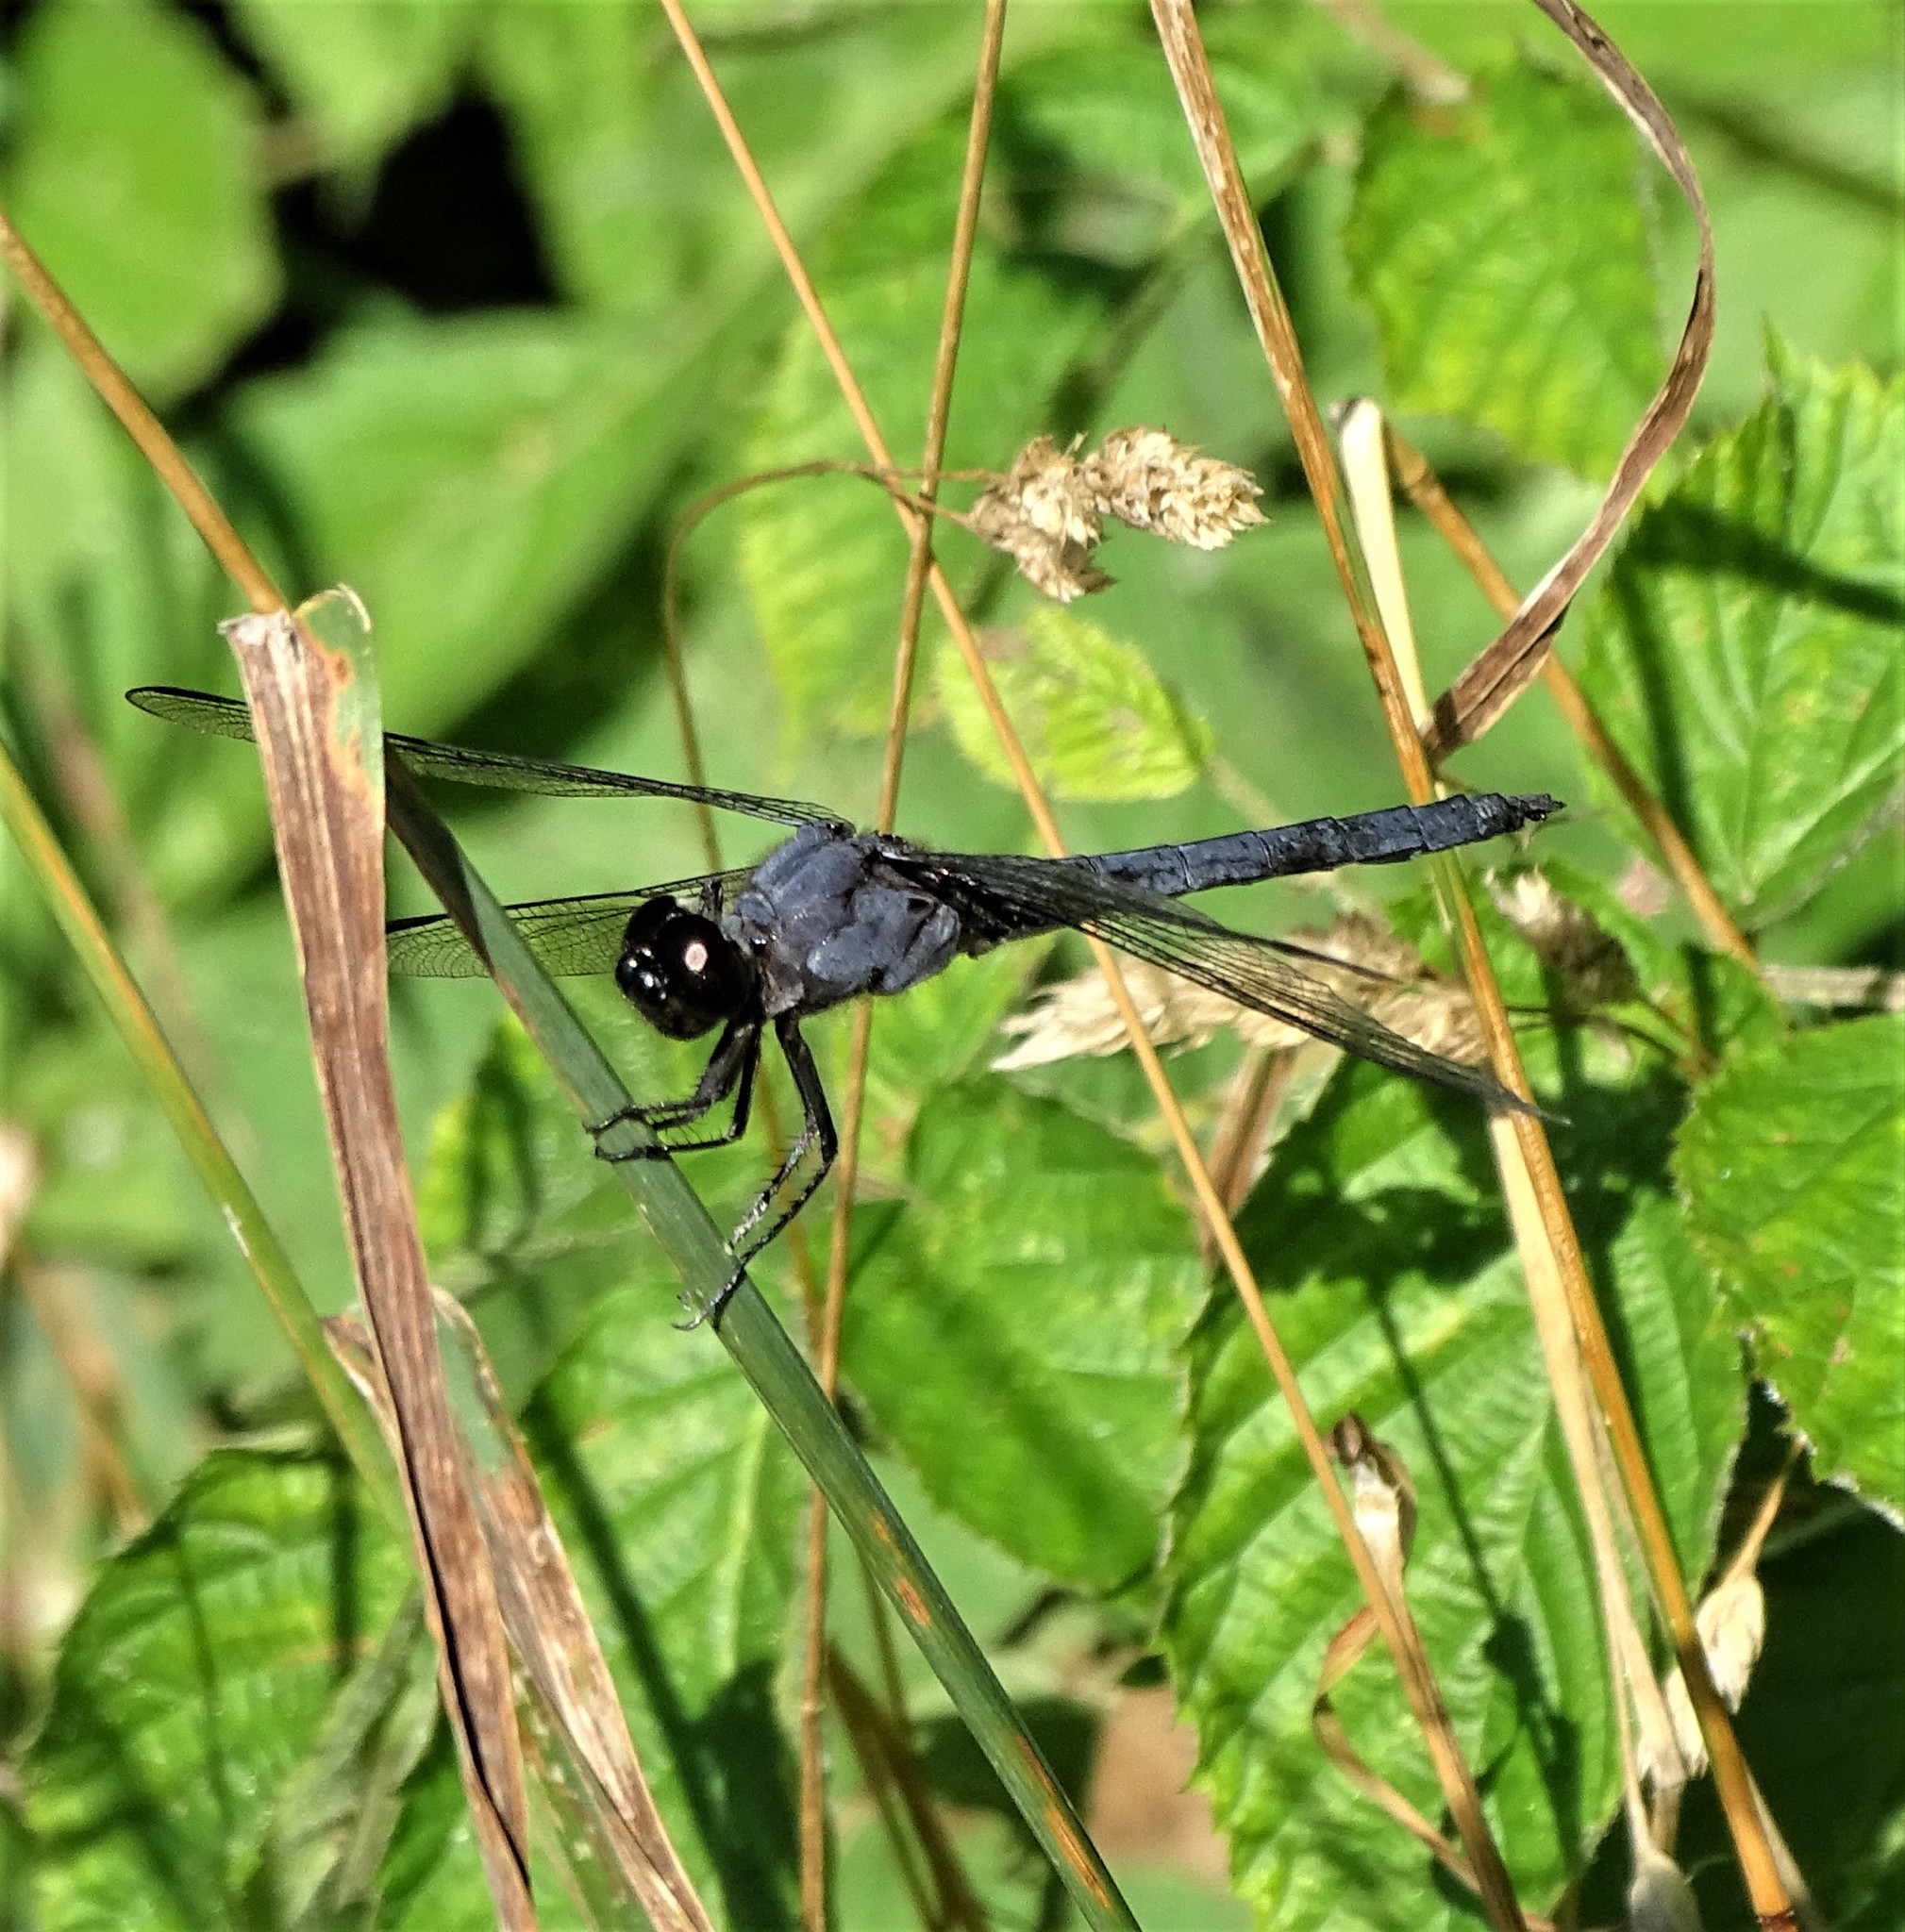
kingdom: Animalia
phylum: Arthropoda
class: Insecta
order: Odonata
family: Libellulidae
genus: Libellula
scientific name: Libellula incesta
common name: Slaty skimmer
